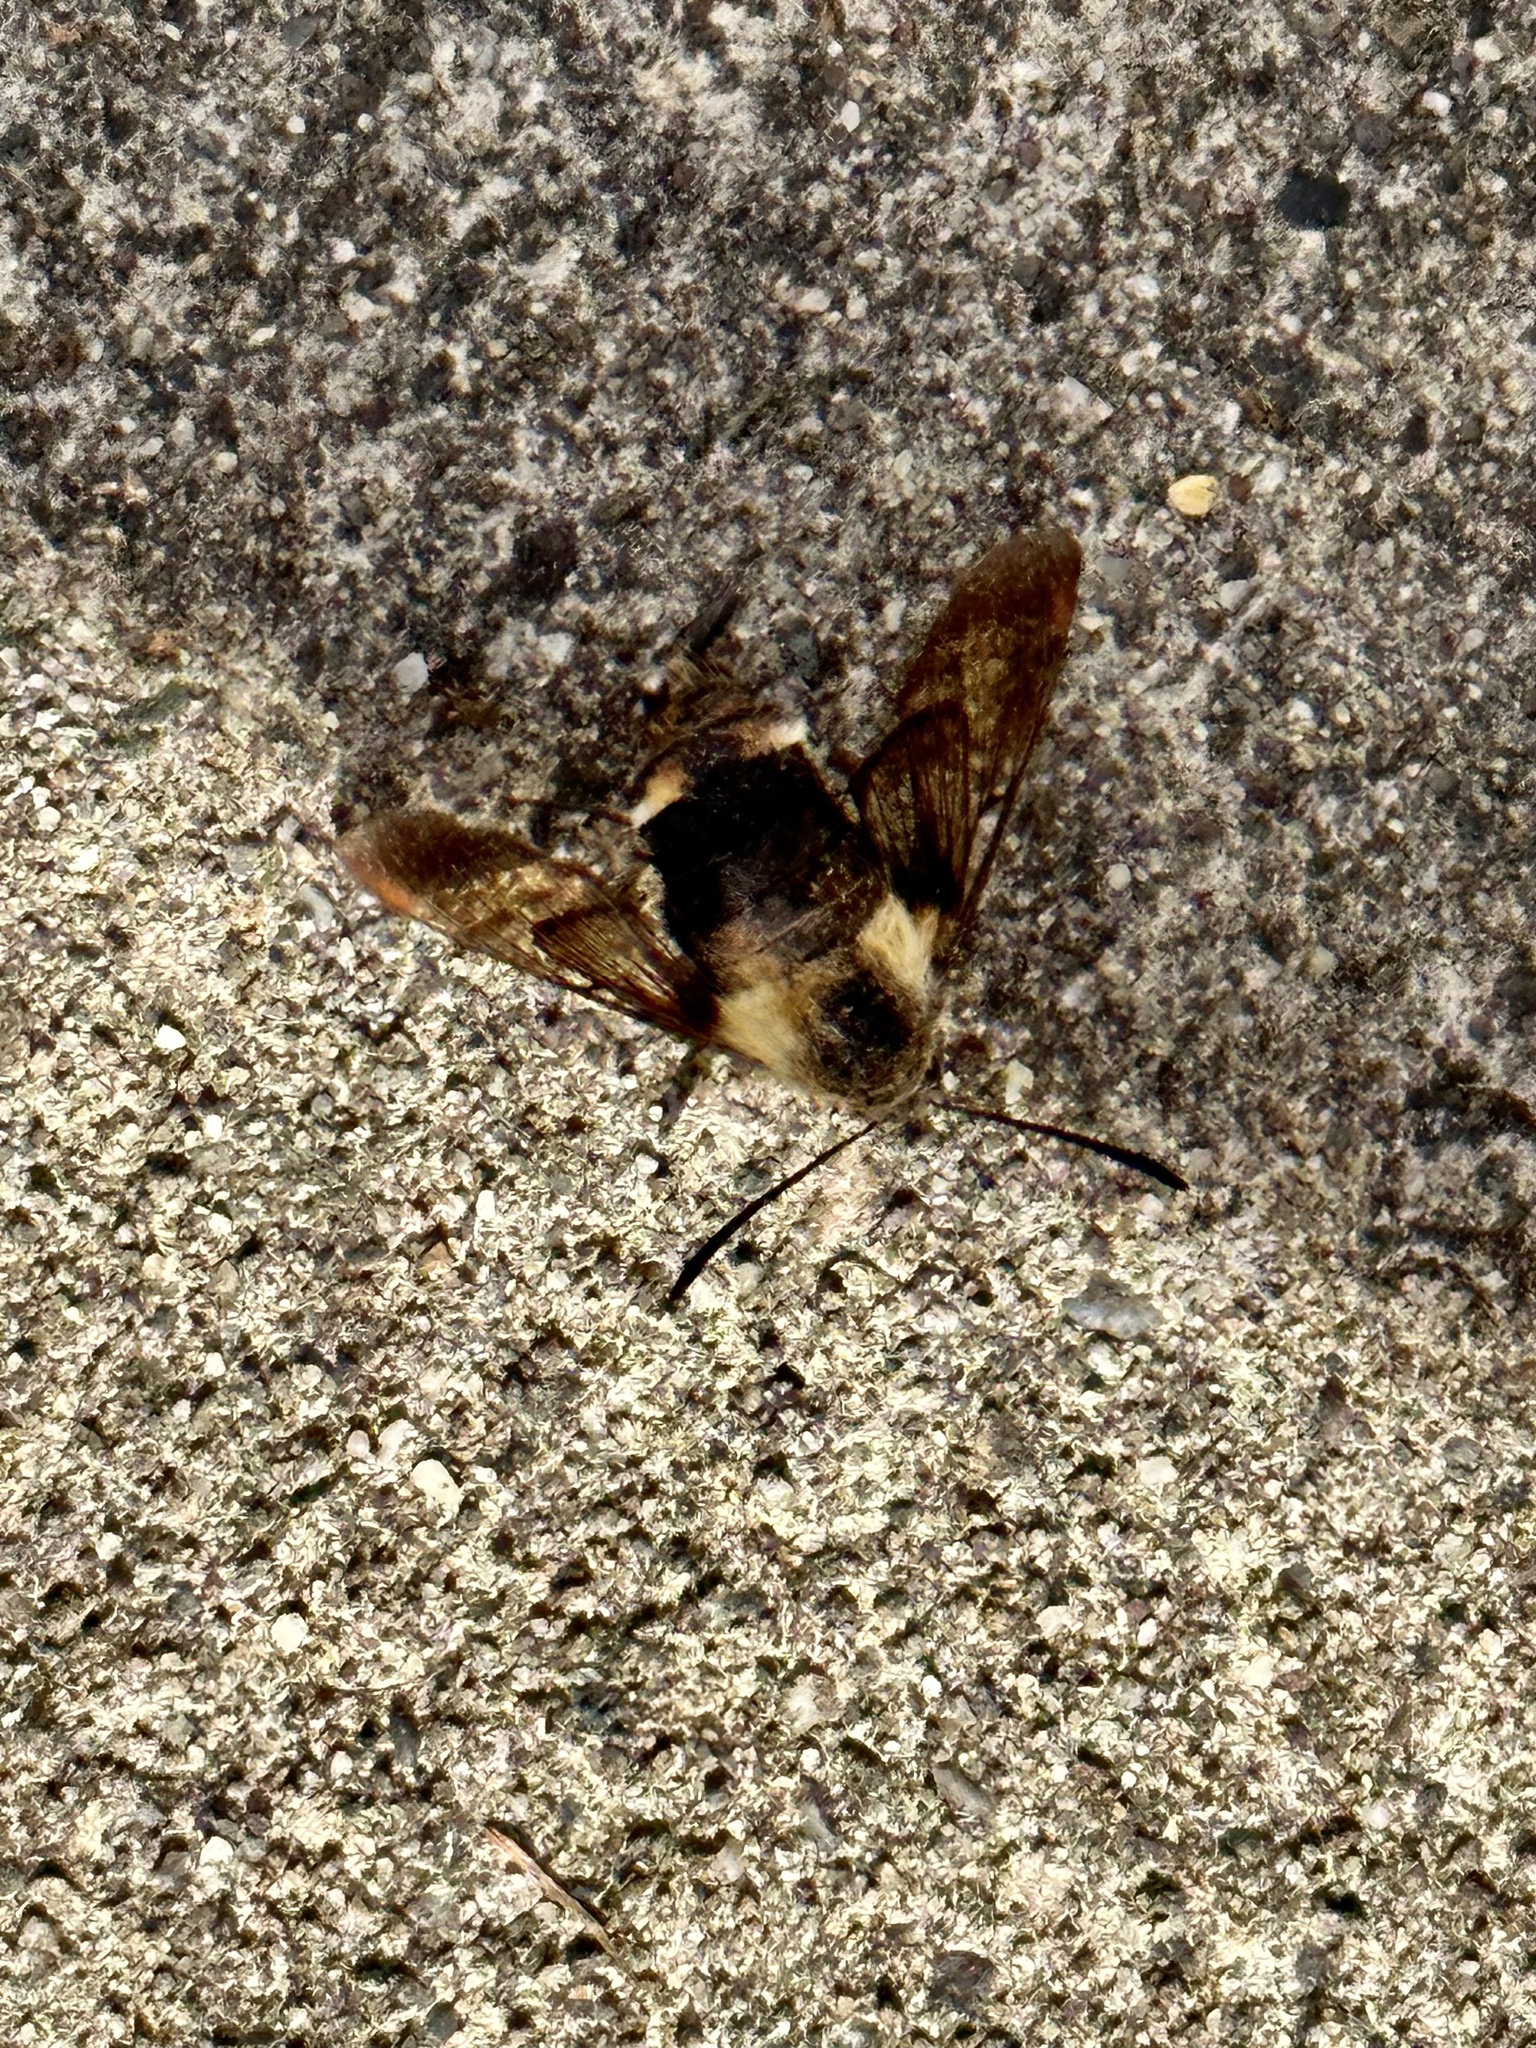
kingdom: Animalia
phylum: Arthropoda
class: Insecta
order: Lepidoptera
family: Sphingidae
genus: Hemaris
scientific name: Hemaris diffinis
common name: Bumblebee moth
